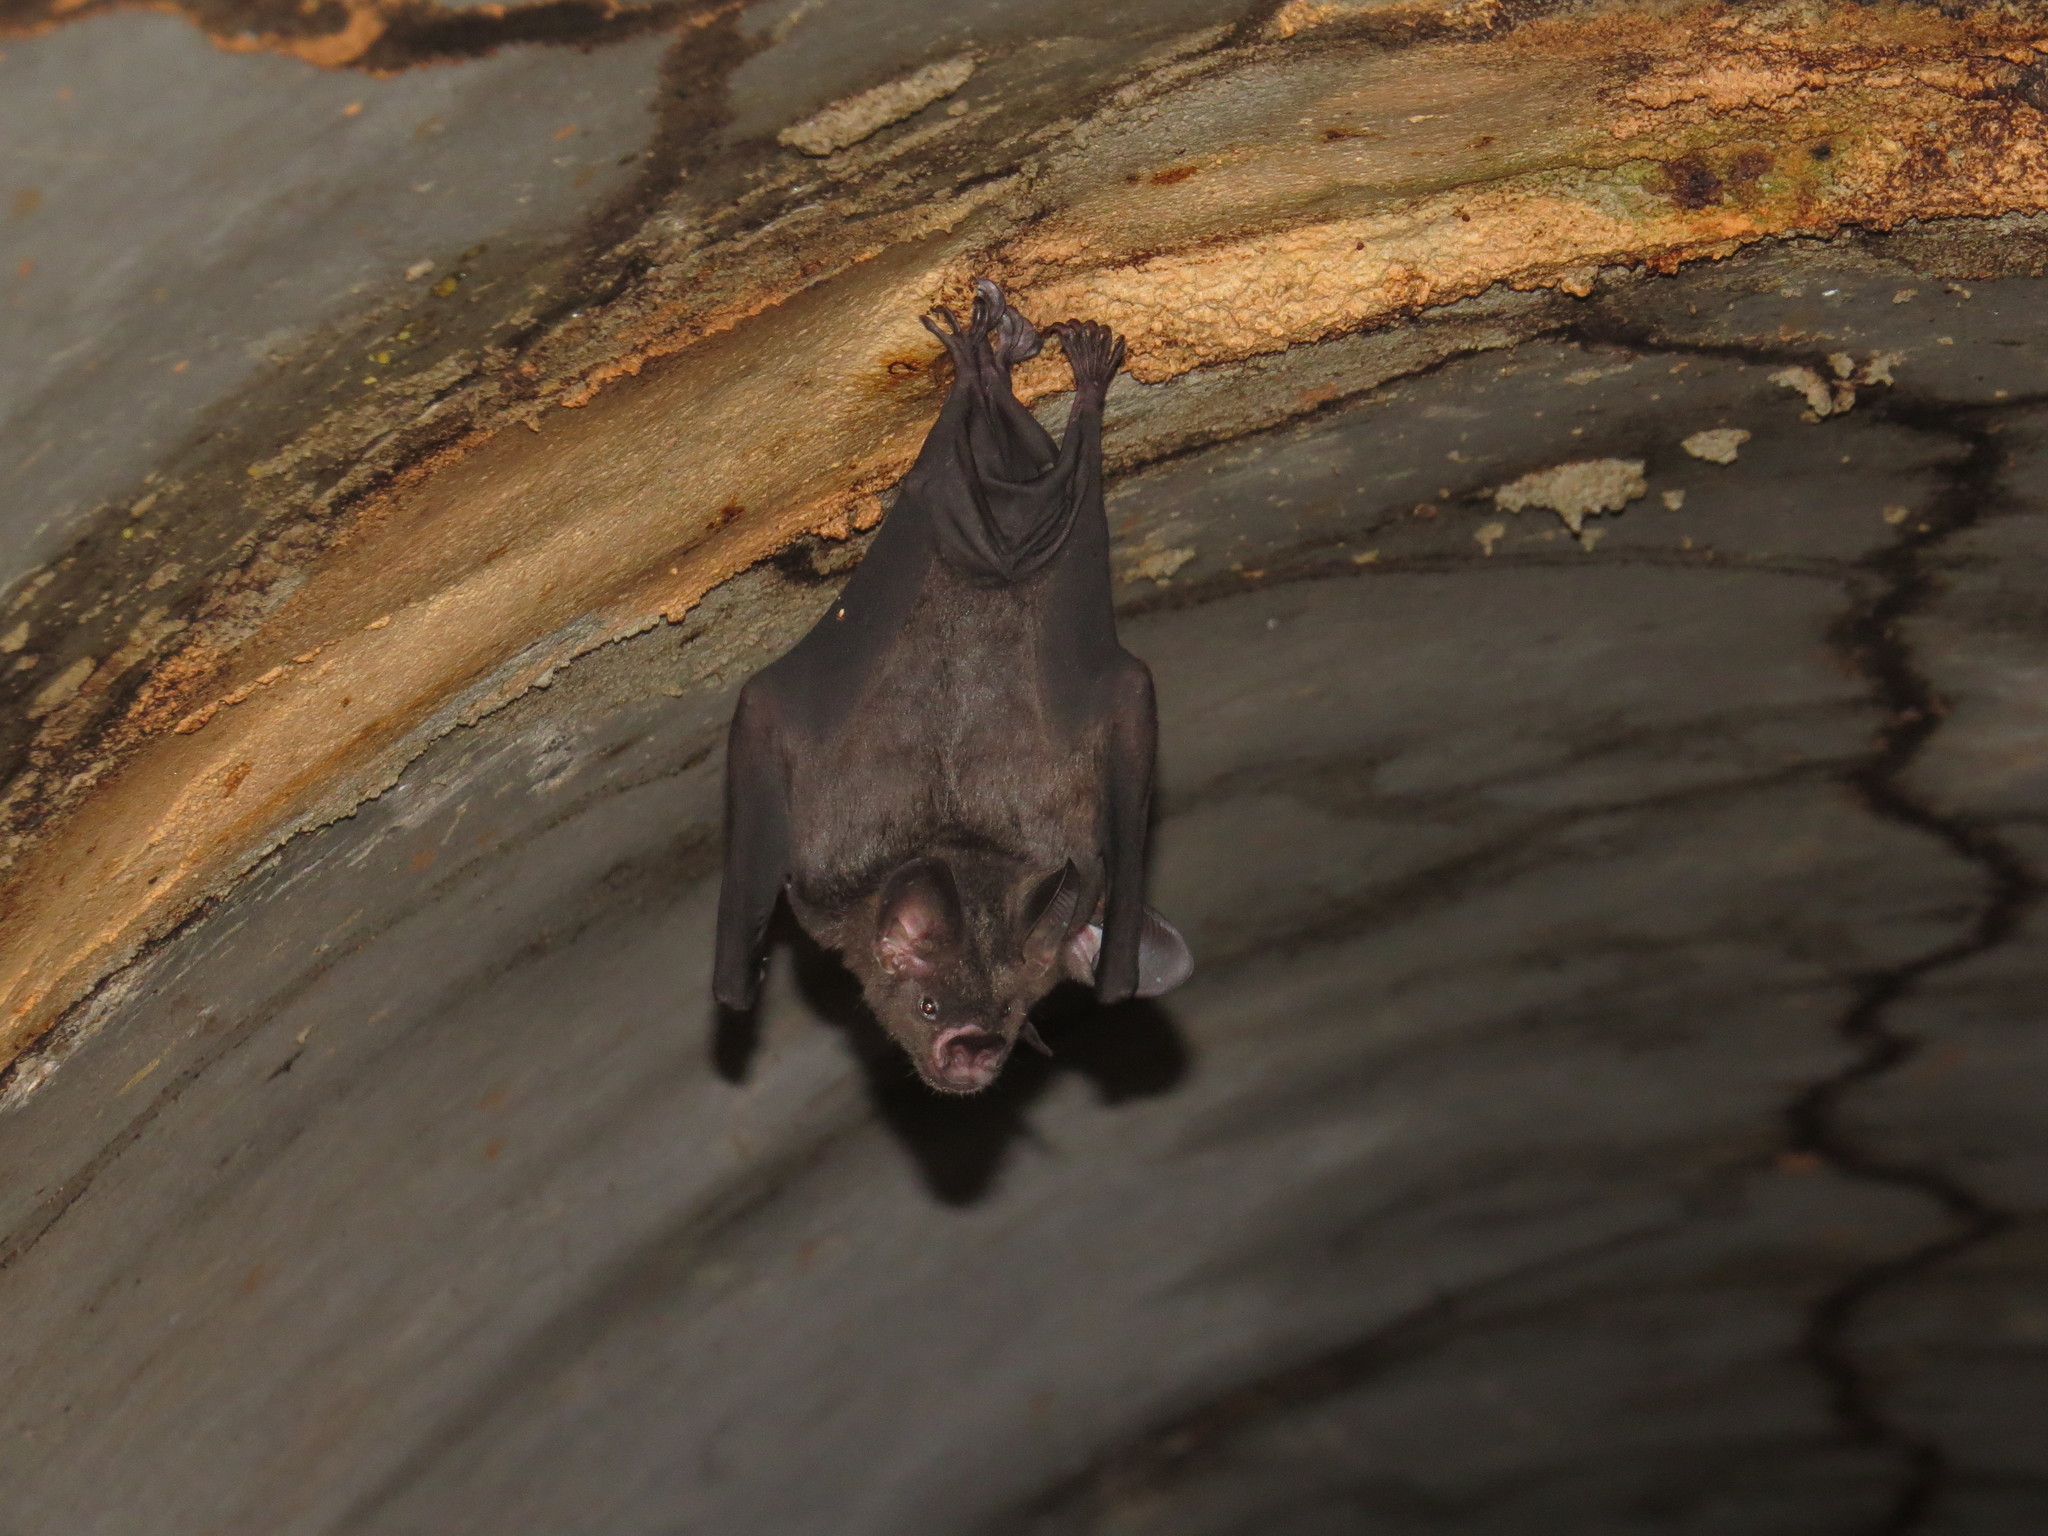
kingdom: Animalia
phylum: Chordata
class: Mammalia
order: Chiroptera
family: Phyllostomidae
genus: Phyllostomus
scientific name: Phyllostomus latifolius
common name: Guianan spear-nosed bat
